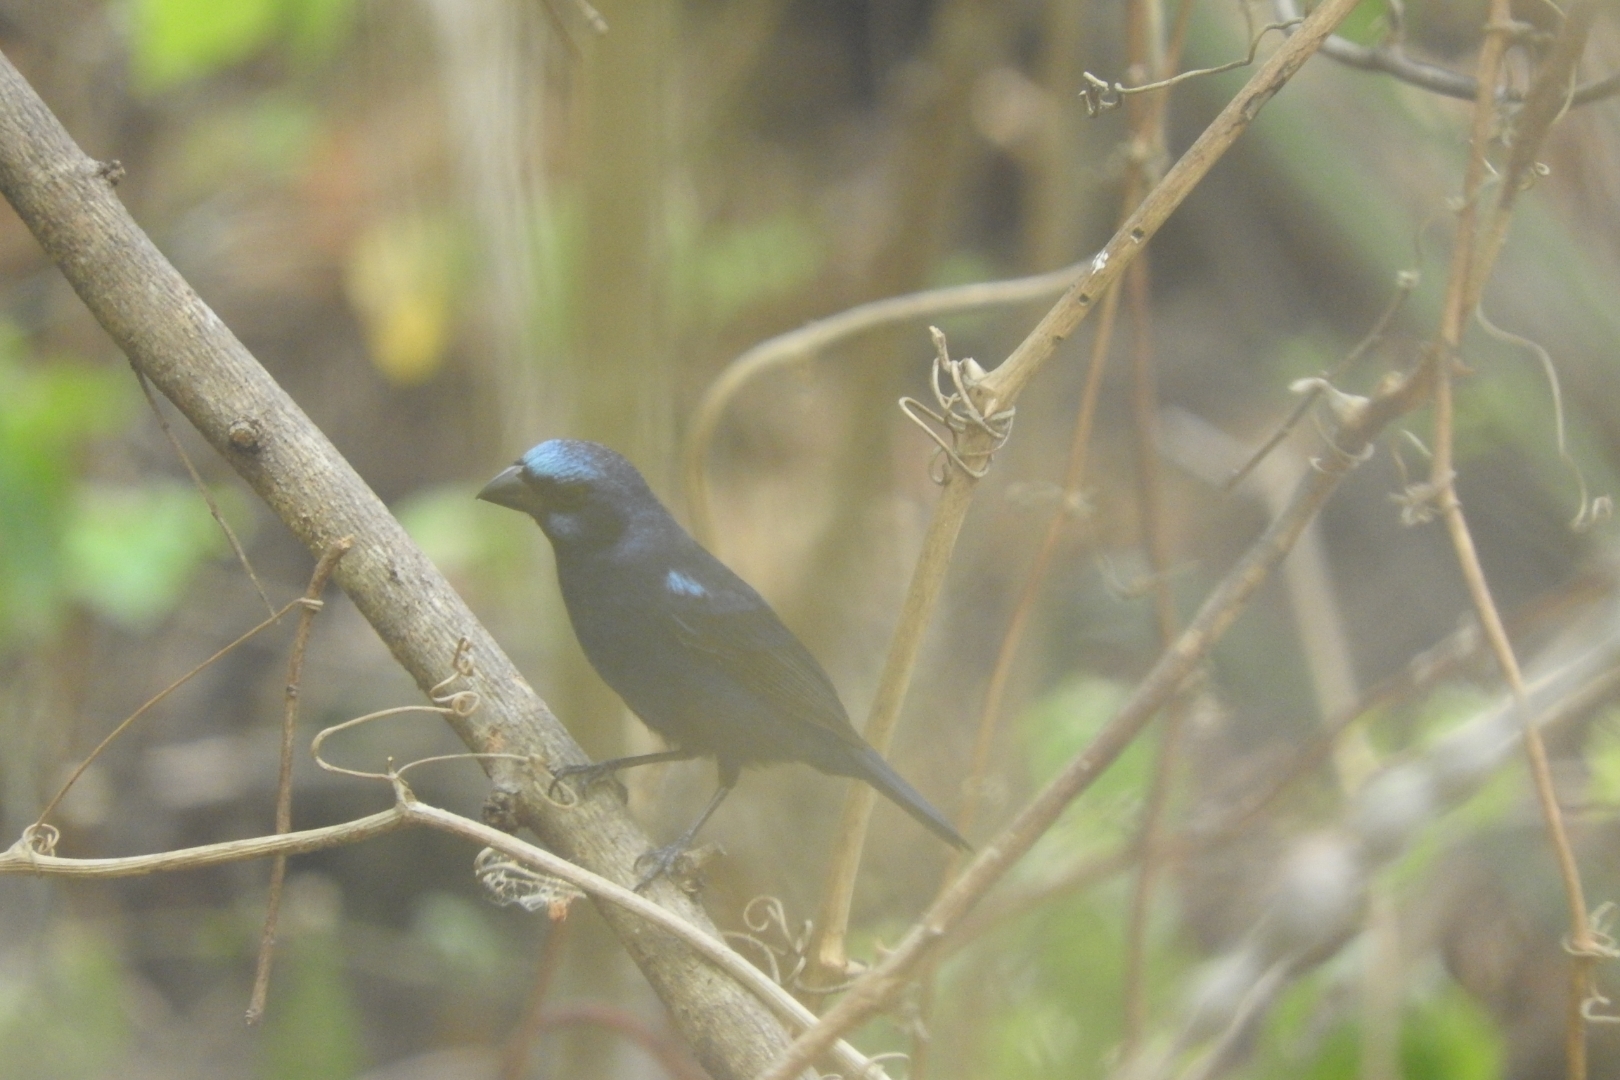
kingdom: Animalia
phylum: Chordata
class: Aves
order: Passeriformes
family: Cardinalidae
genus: Cyanocompsa
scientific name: Cyanocompsa parellina
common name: Blue bunting
